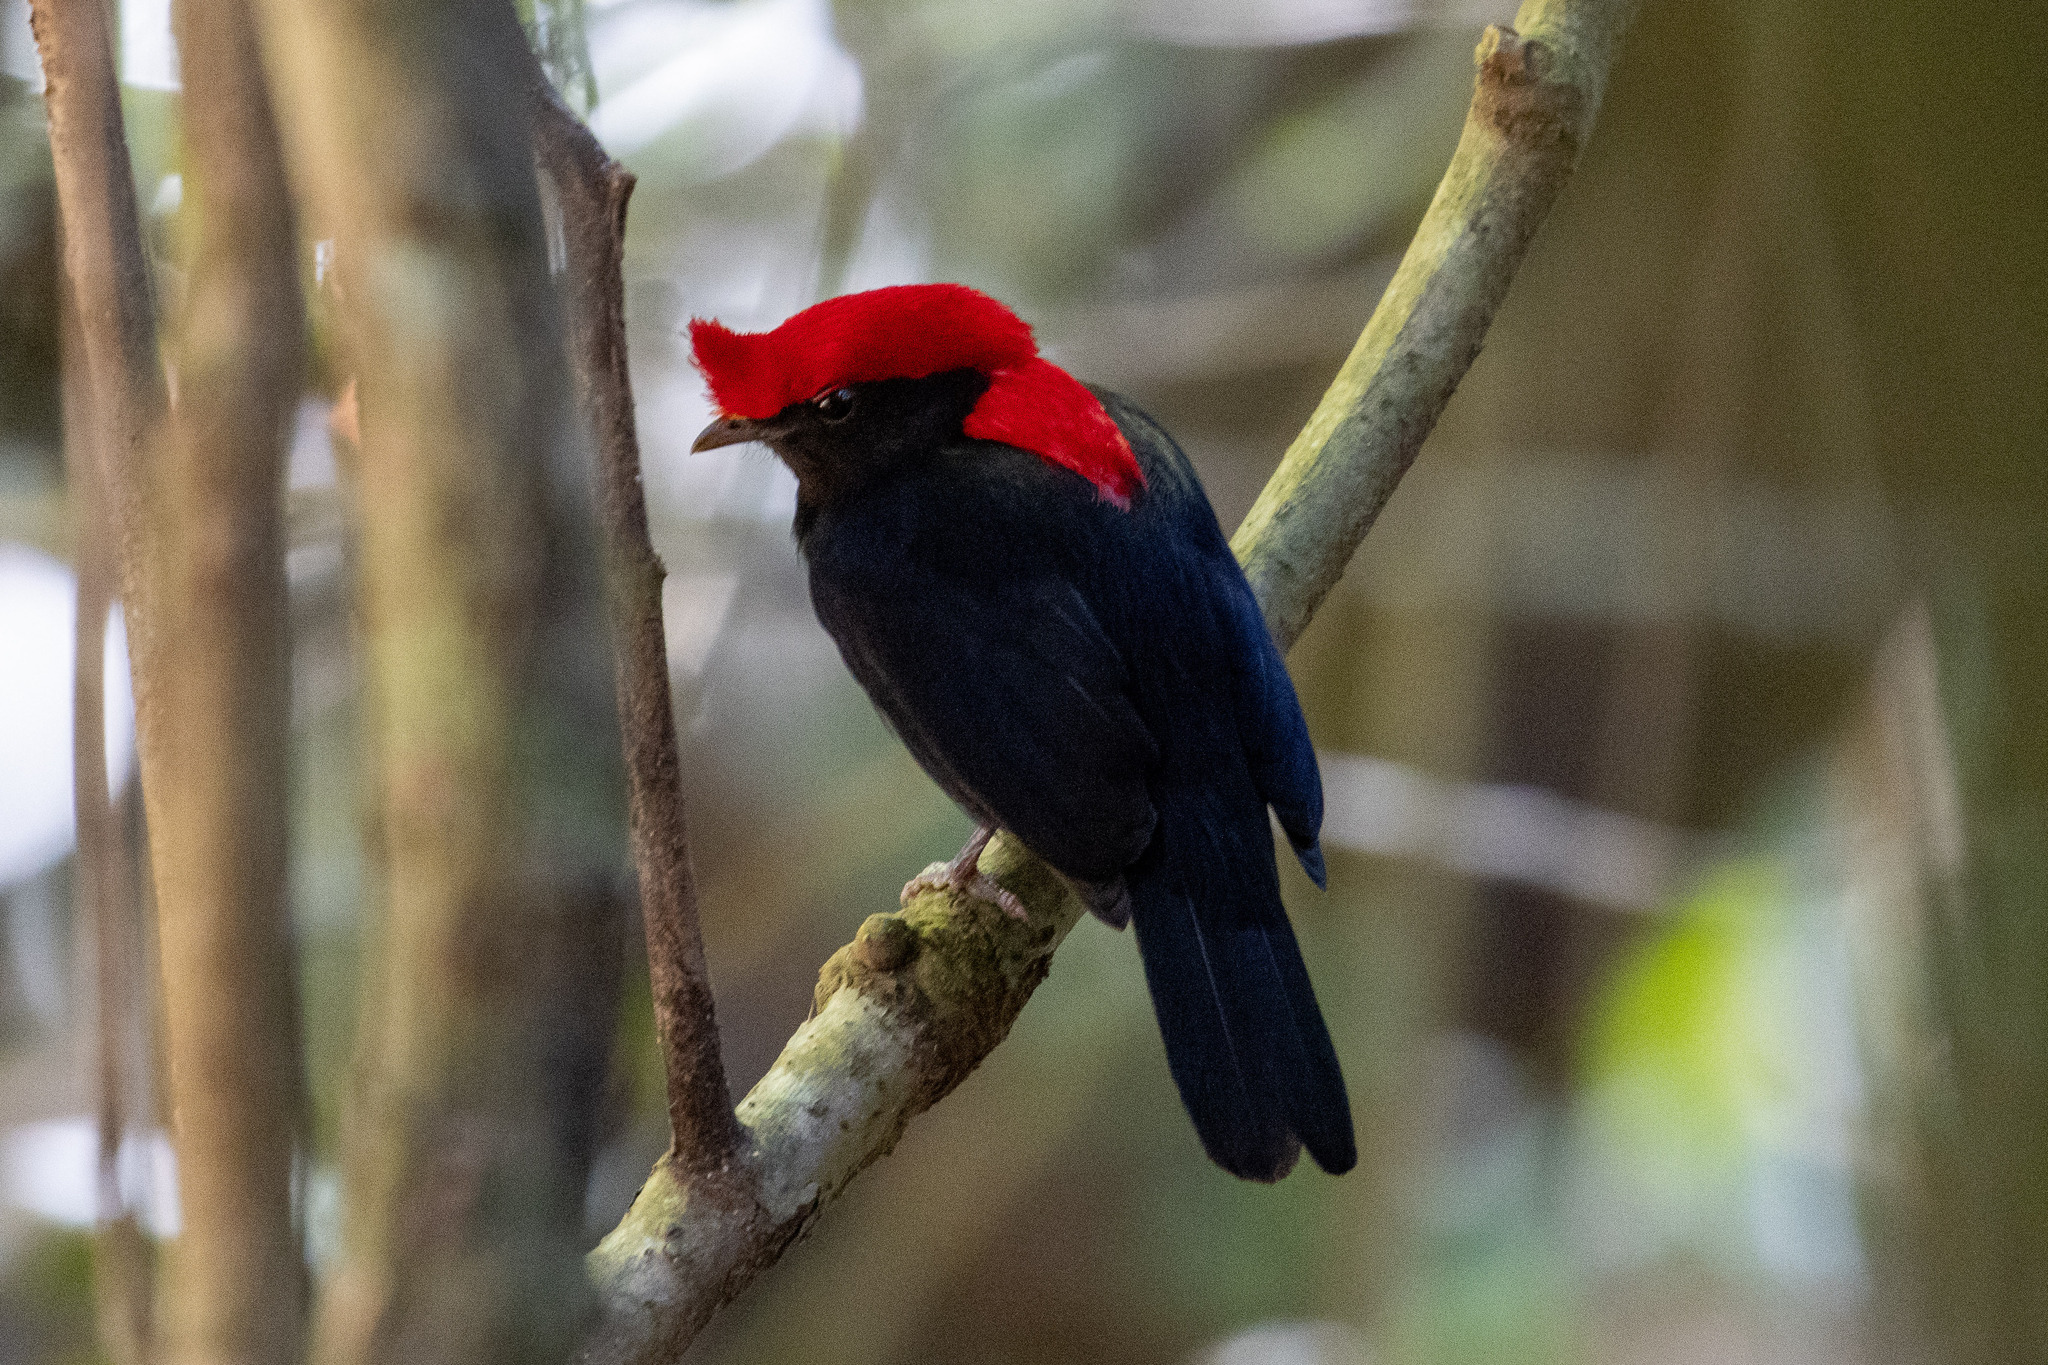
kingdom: Animalia
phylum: Chordata
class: Aves
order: Passeriformes
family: Pipridae
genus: Antilophia
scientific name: Antilophia galeata
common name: Helmeted manakin
